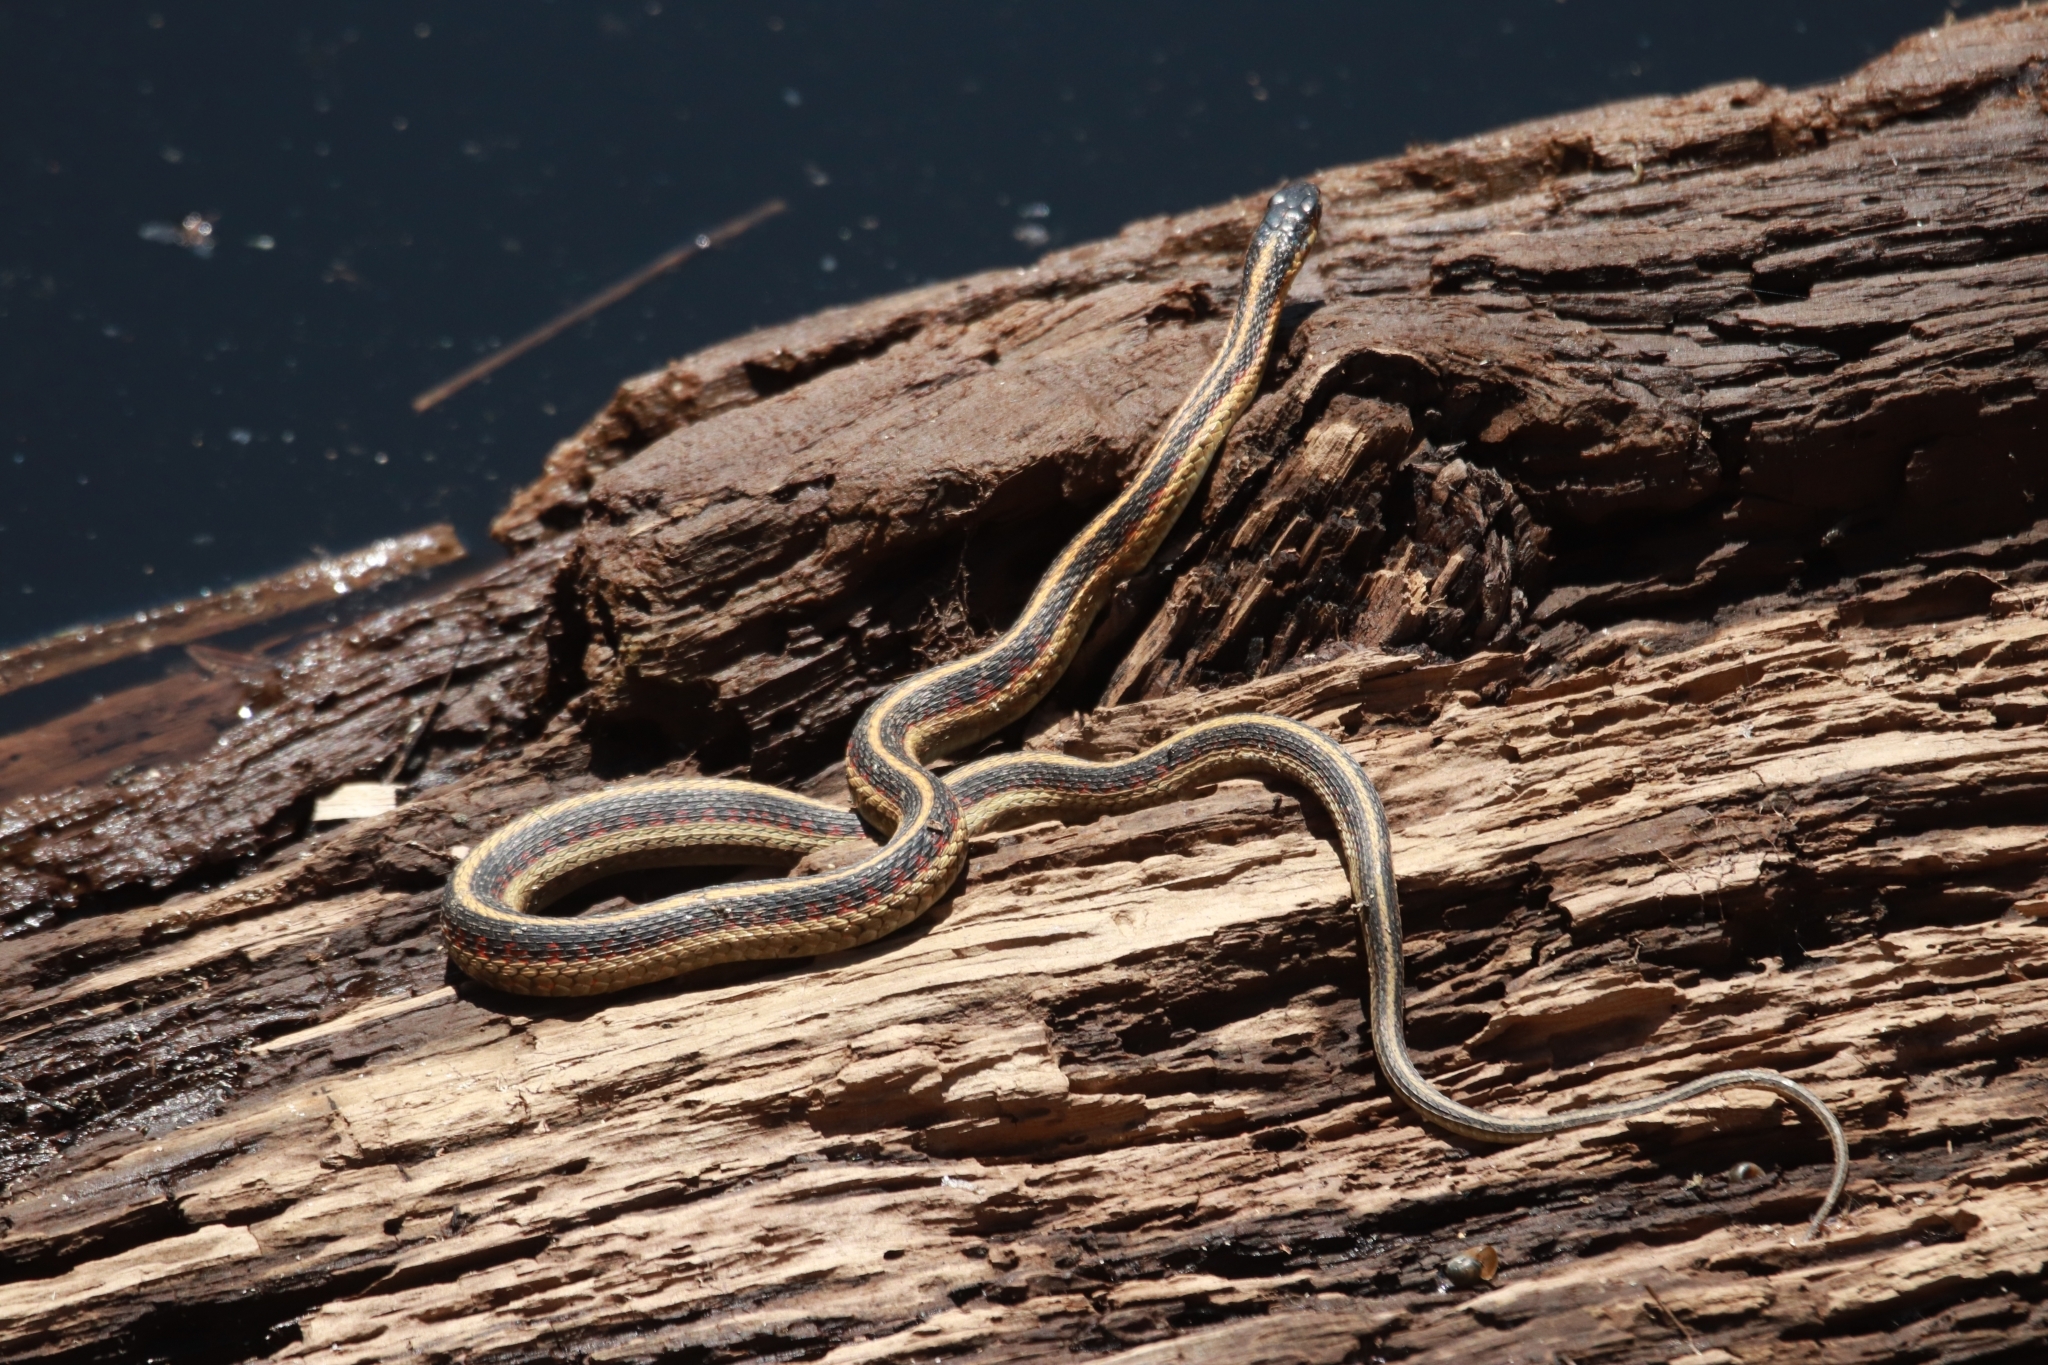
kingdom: Animalia
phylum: Chordata
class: Squamata
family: Colubridae
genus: Thamnophis
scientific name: Thamnophis sirtalis
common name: Common garter snake
